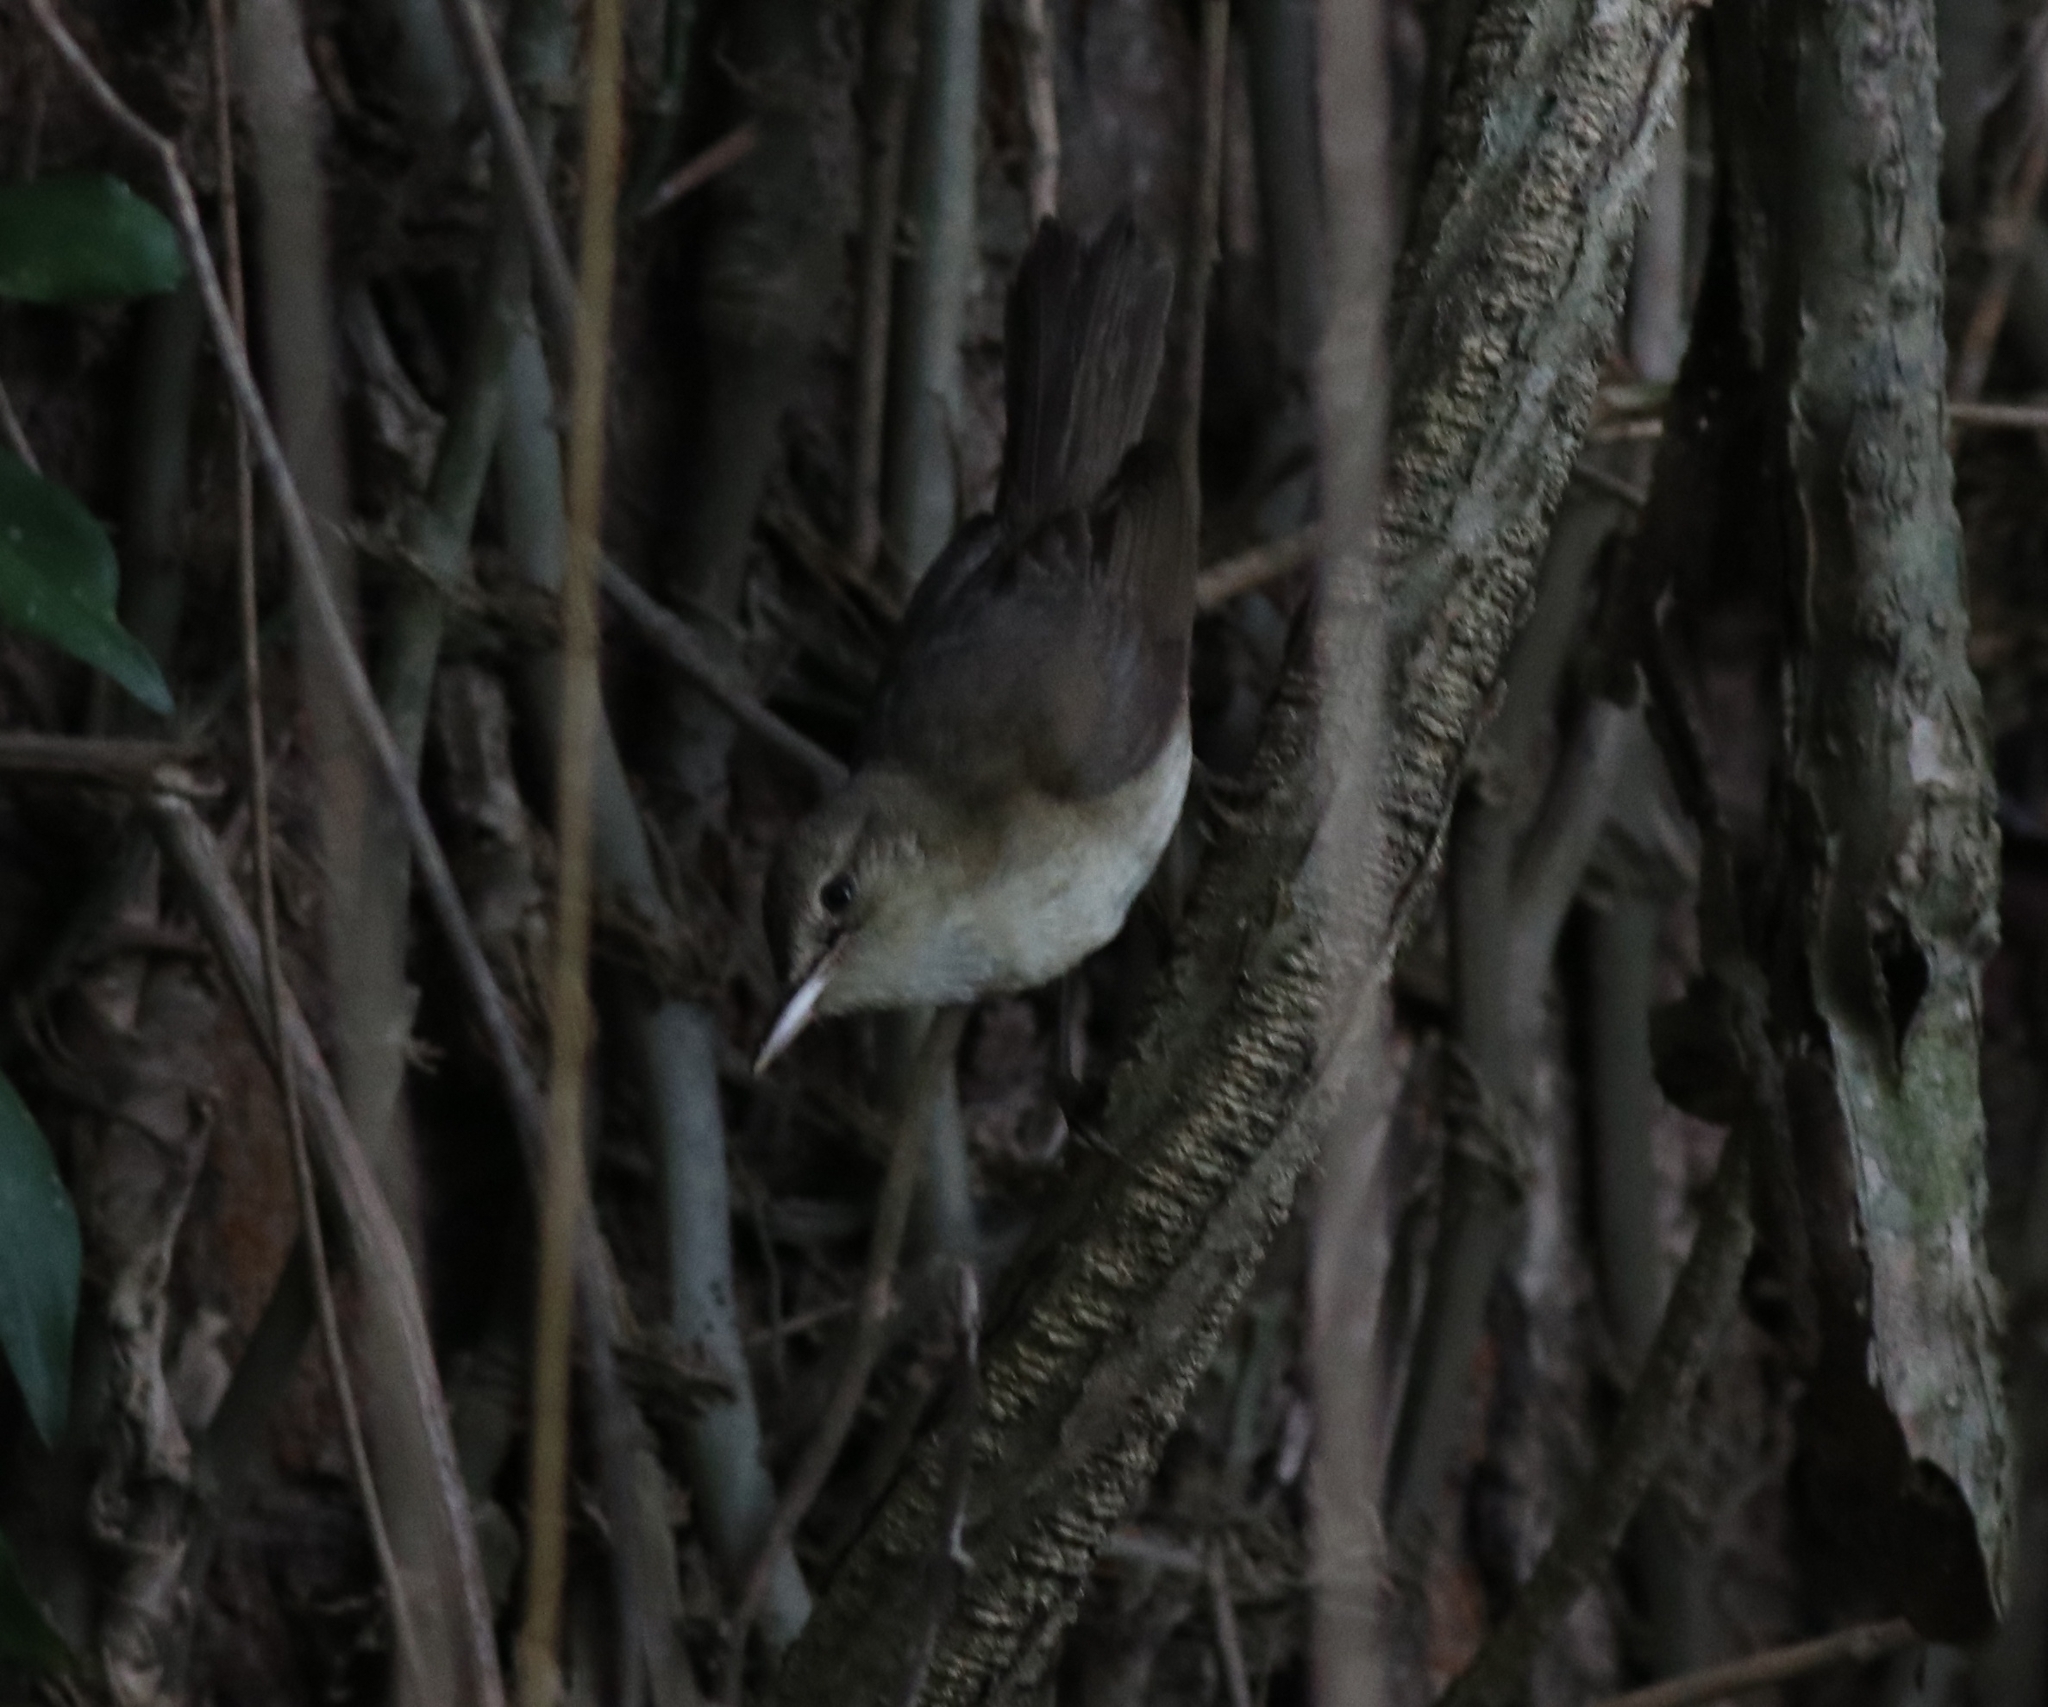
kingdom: Animalia
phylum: Chordata
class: Aves
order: Passeriformes
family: Acrocephalidae
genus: Acrocephalus
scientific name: Acrocephalus dumetorum
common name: Blyth's reed warbler
